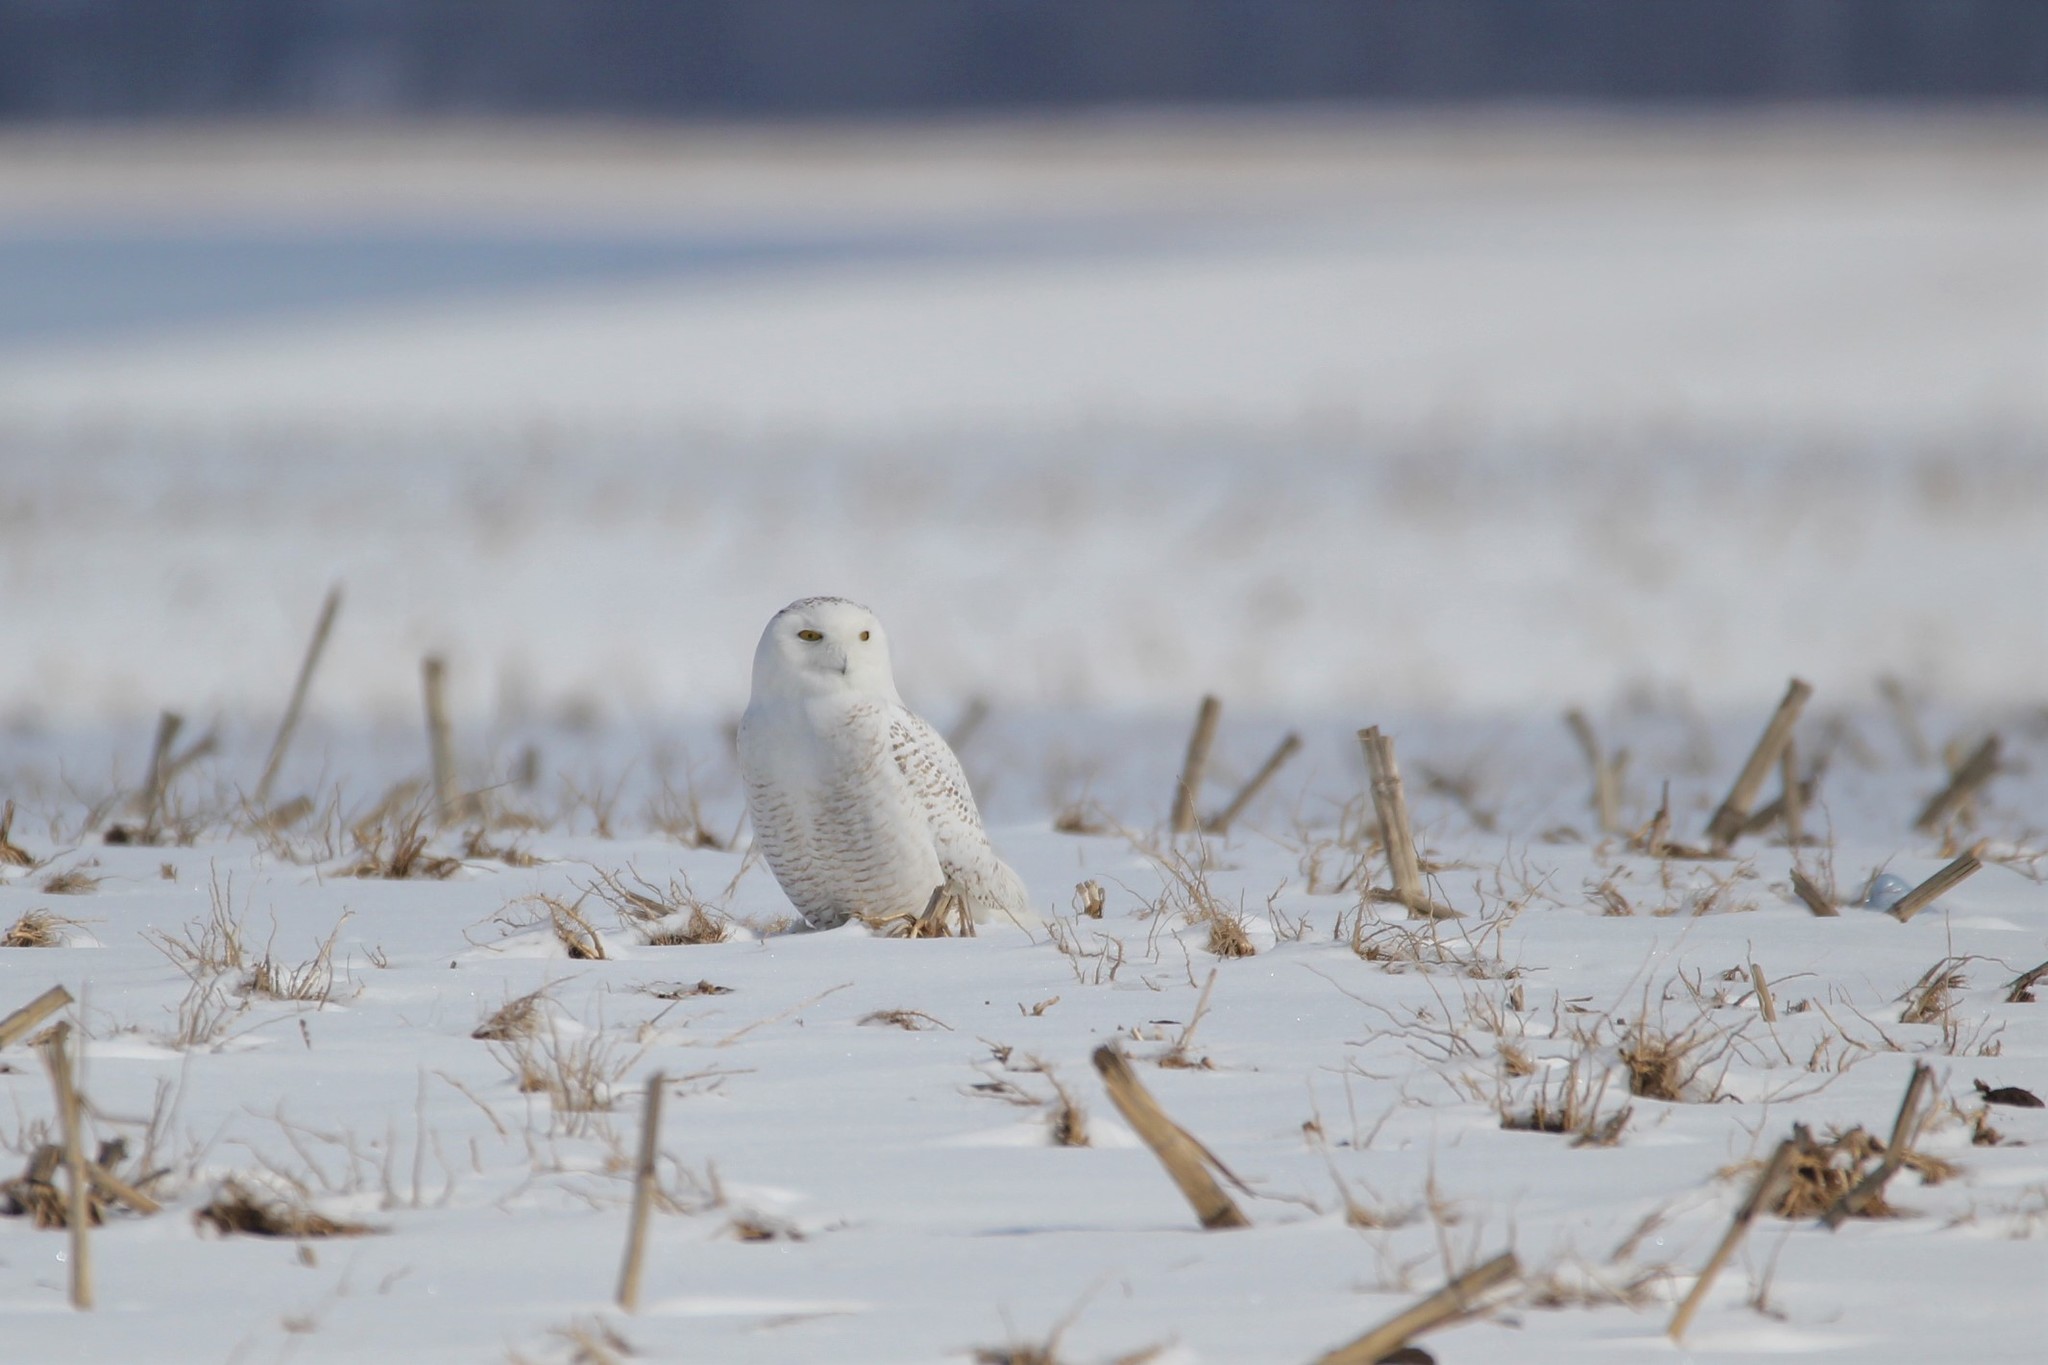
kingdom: Animalia
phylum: Chordata
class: Aves
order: Strigiformes
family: Strigidae
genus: Bubo
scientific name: Bubo scandiacus
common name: Snowy owl
